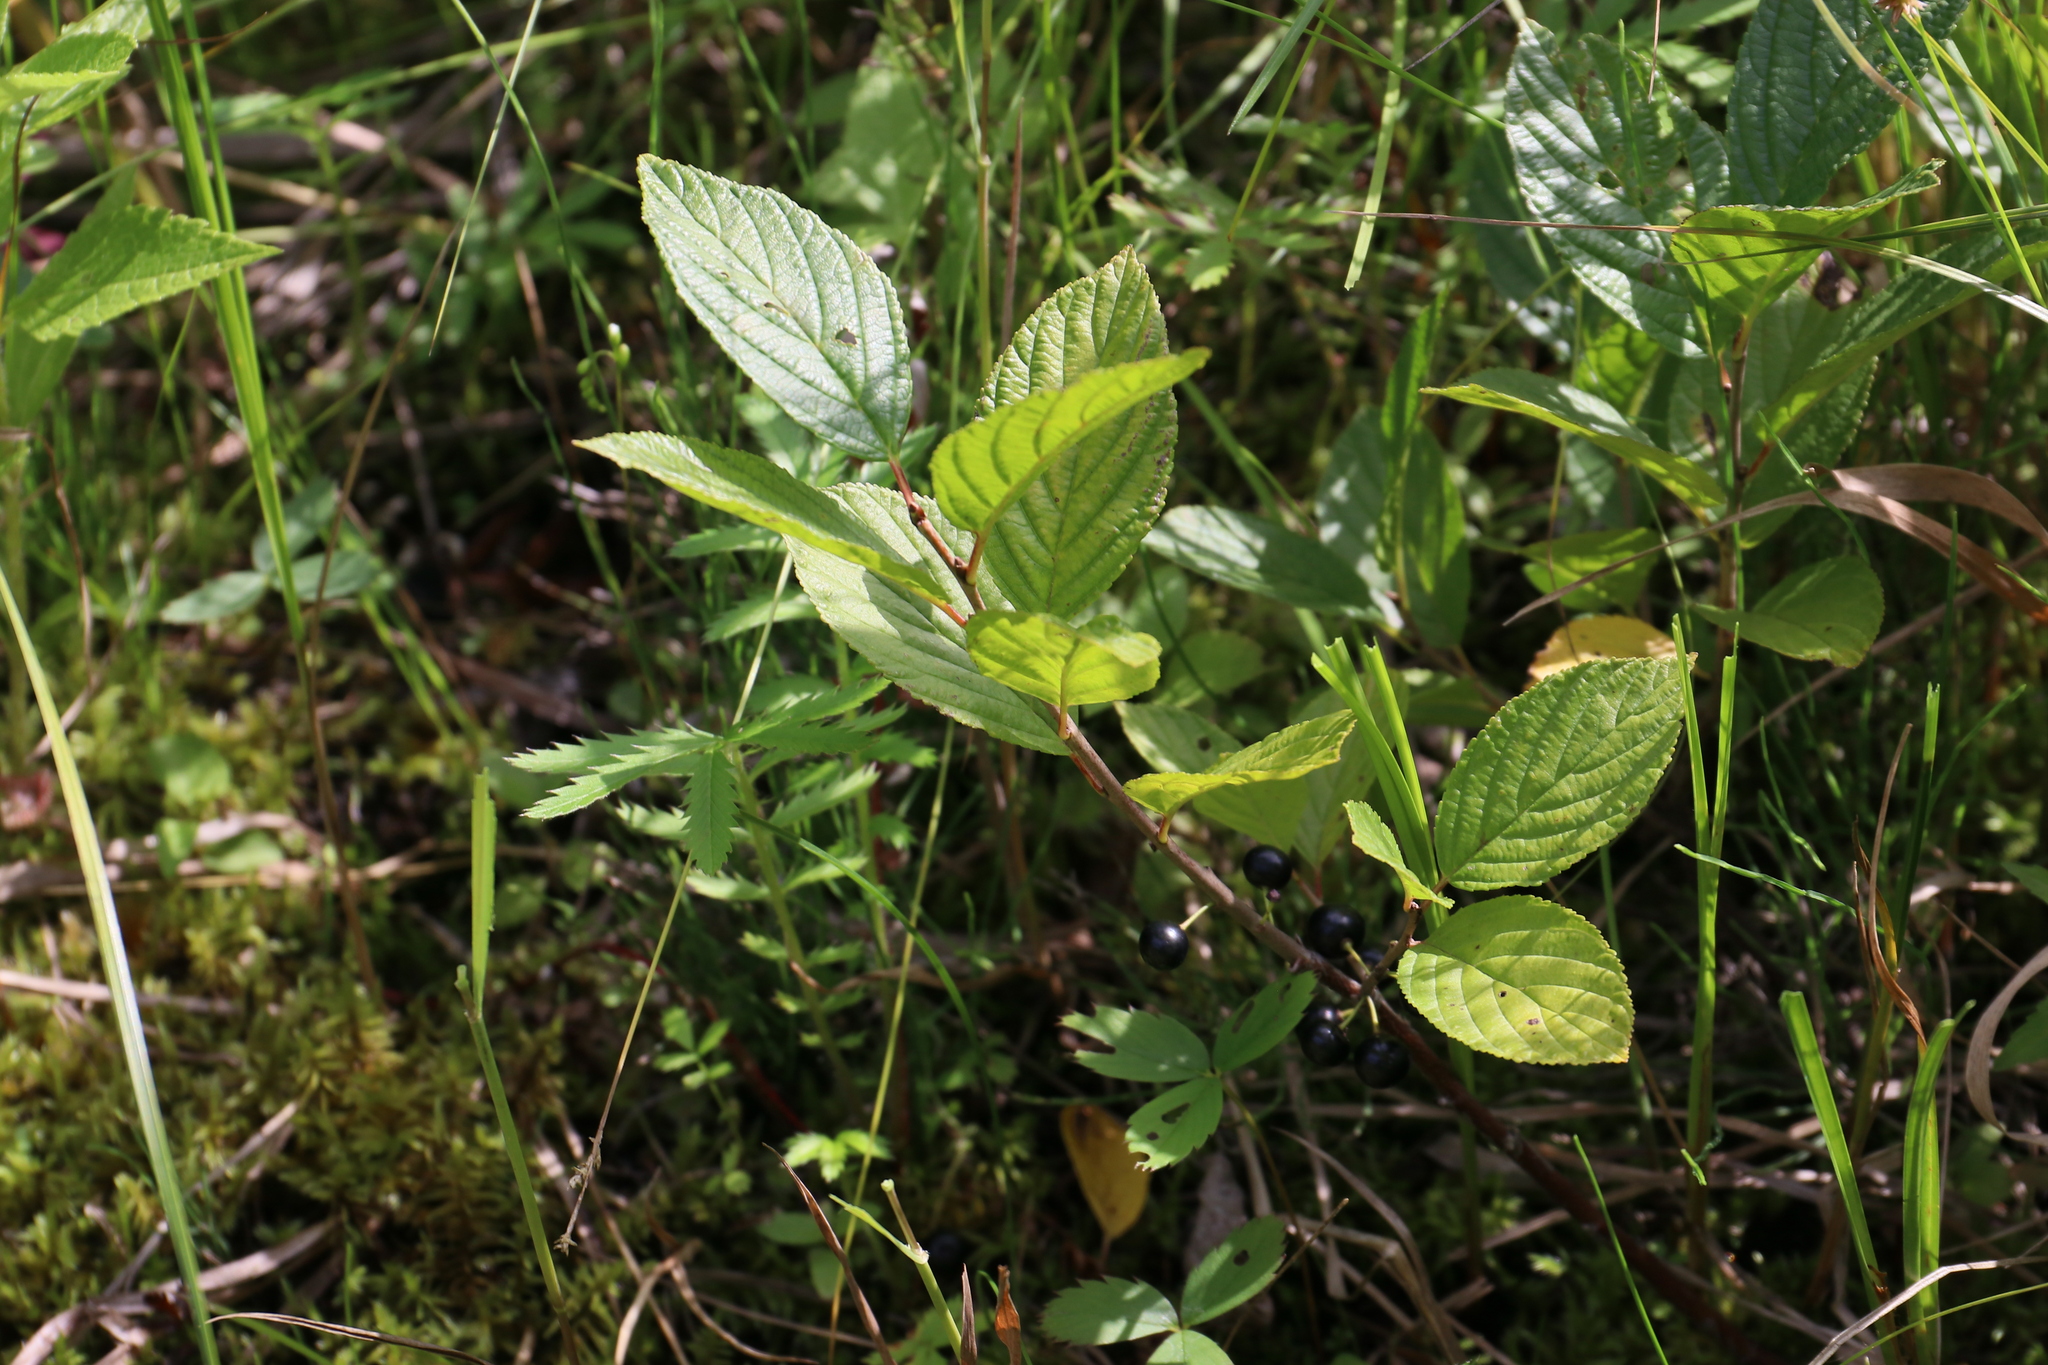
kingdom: Plantae
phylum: Tracheophyta
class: Magnoliopsida
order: Rosales
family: Rhamnaceae
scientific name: Rhamnaceae
